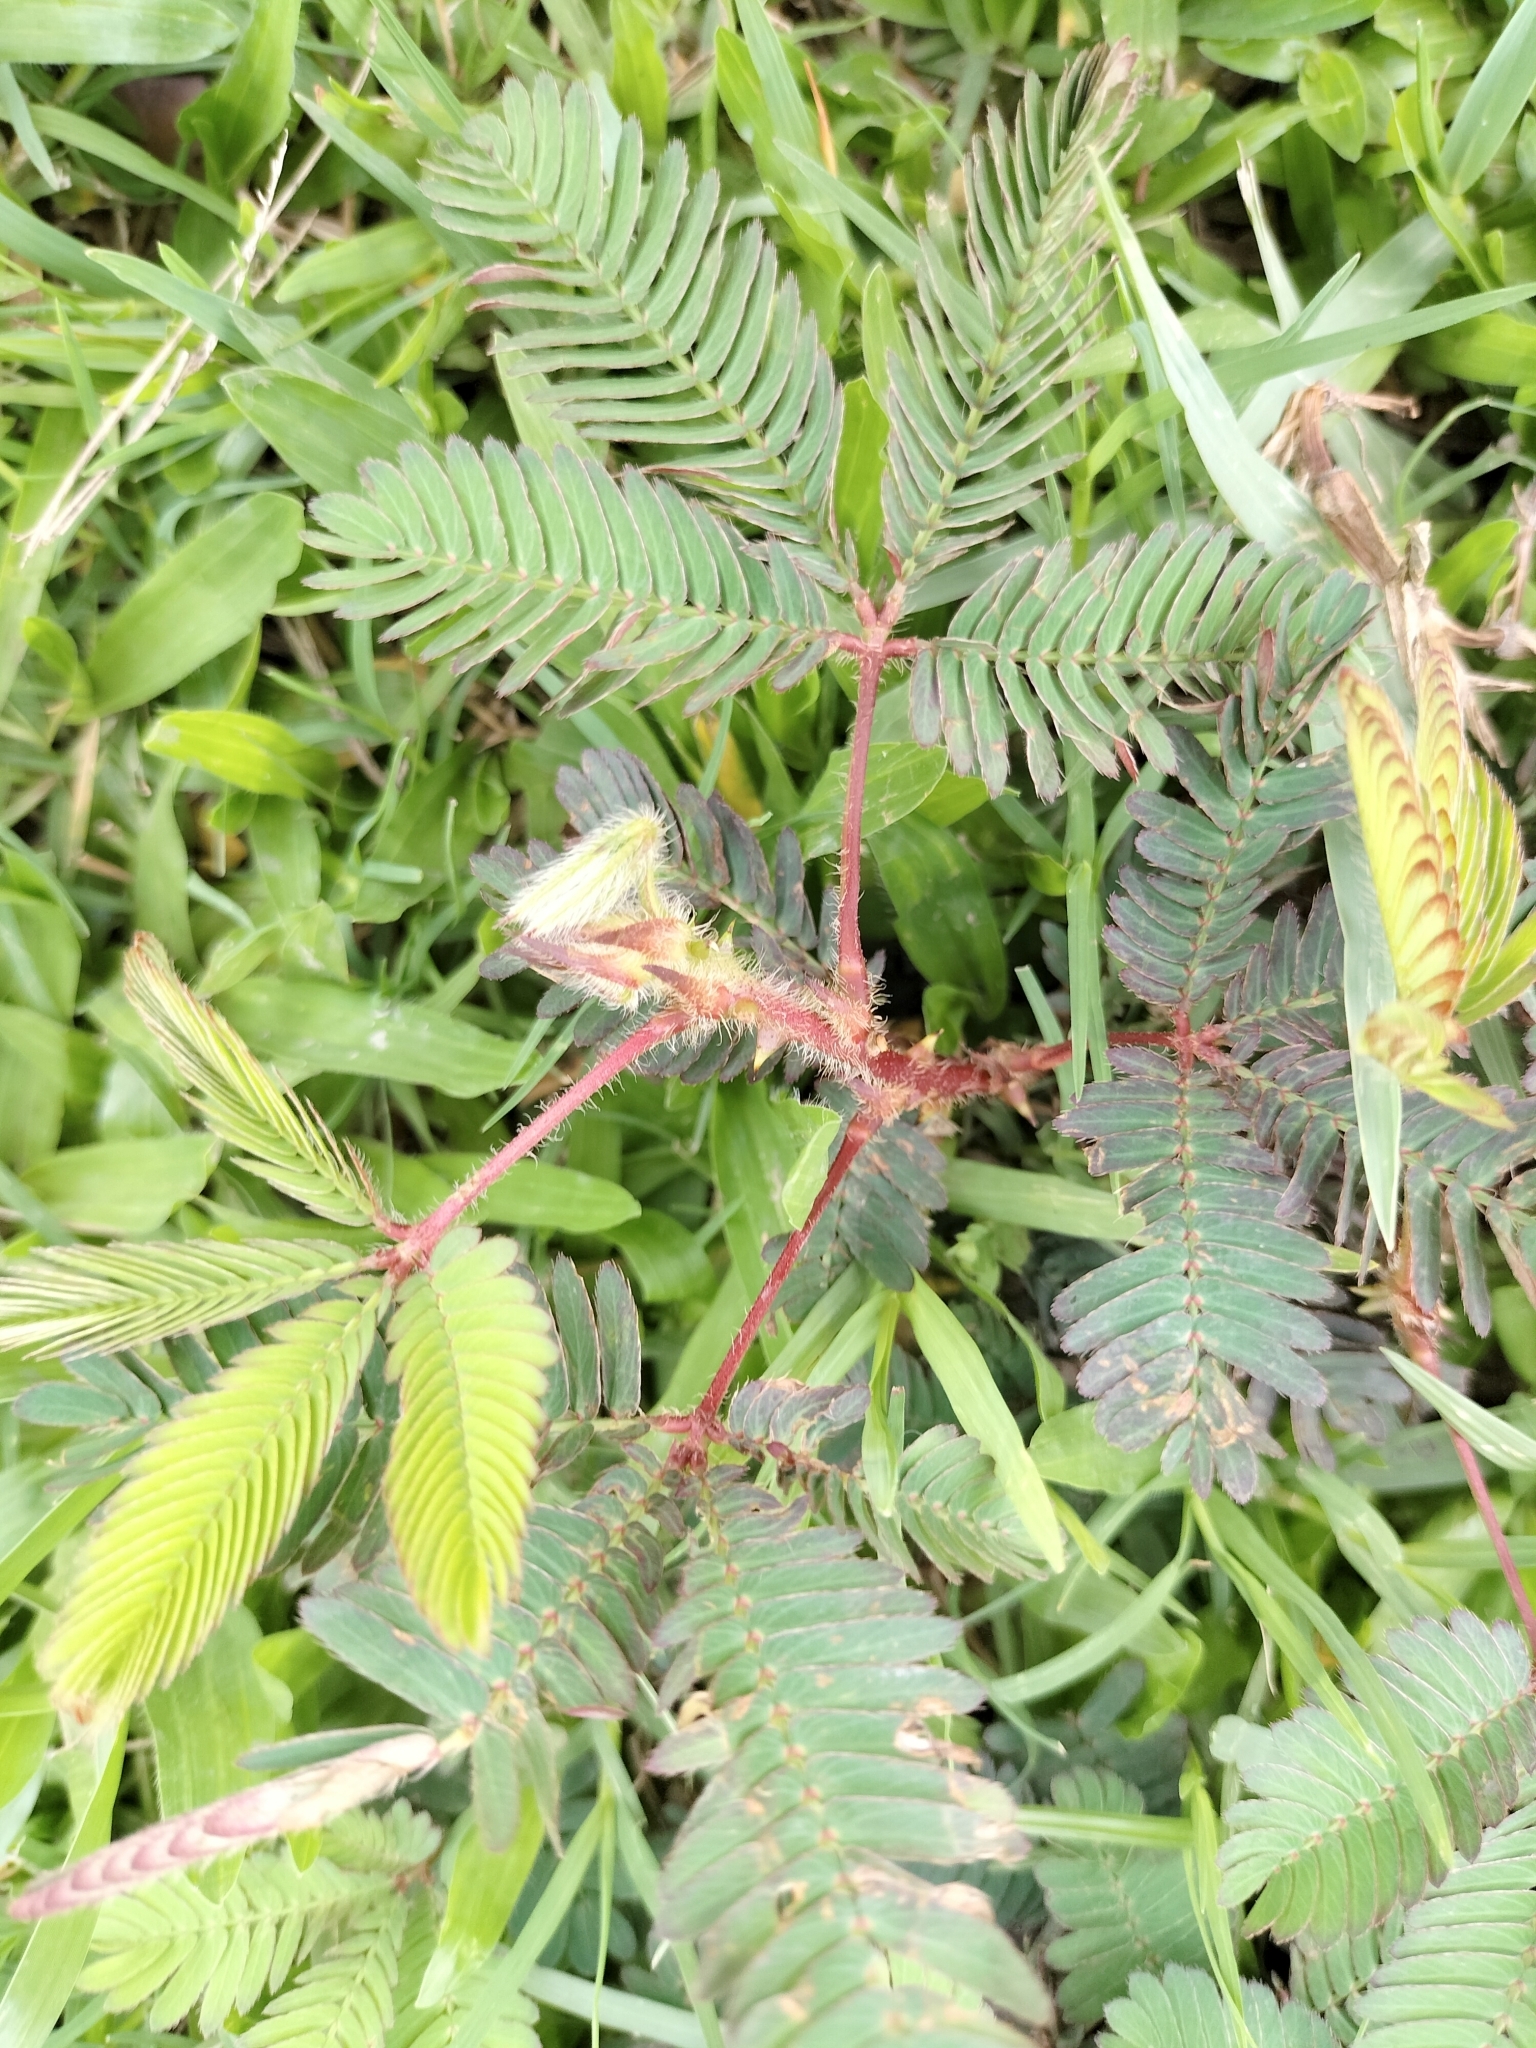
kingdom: Plantae
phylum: Tracheophyta
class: Magnoliopsida
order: Fabales
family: Fabaceae
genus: Mimosa
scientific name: Mimosa pudica
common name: Sensitive plant
